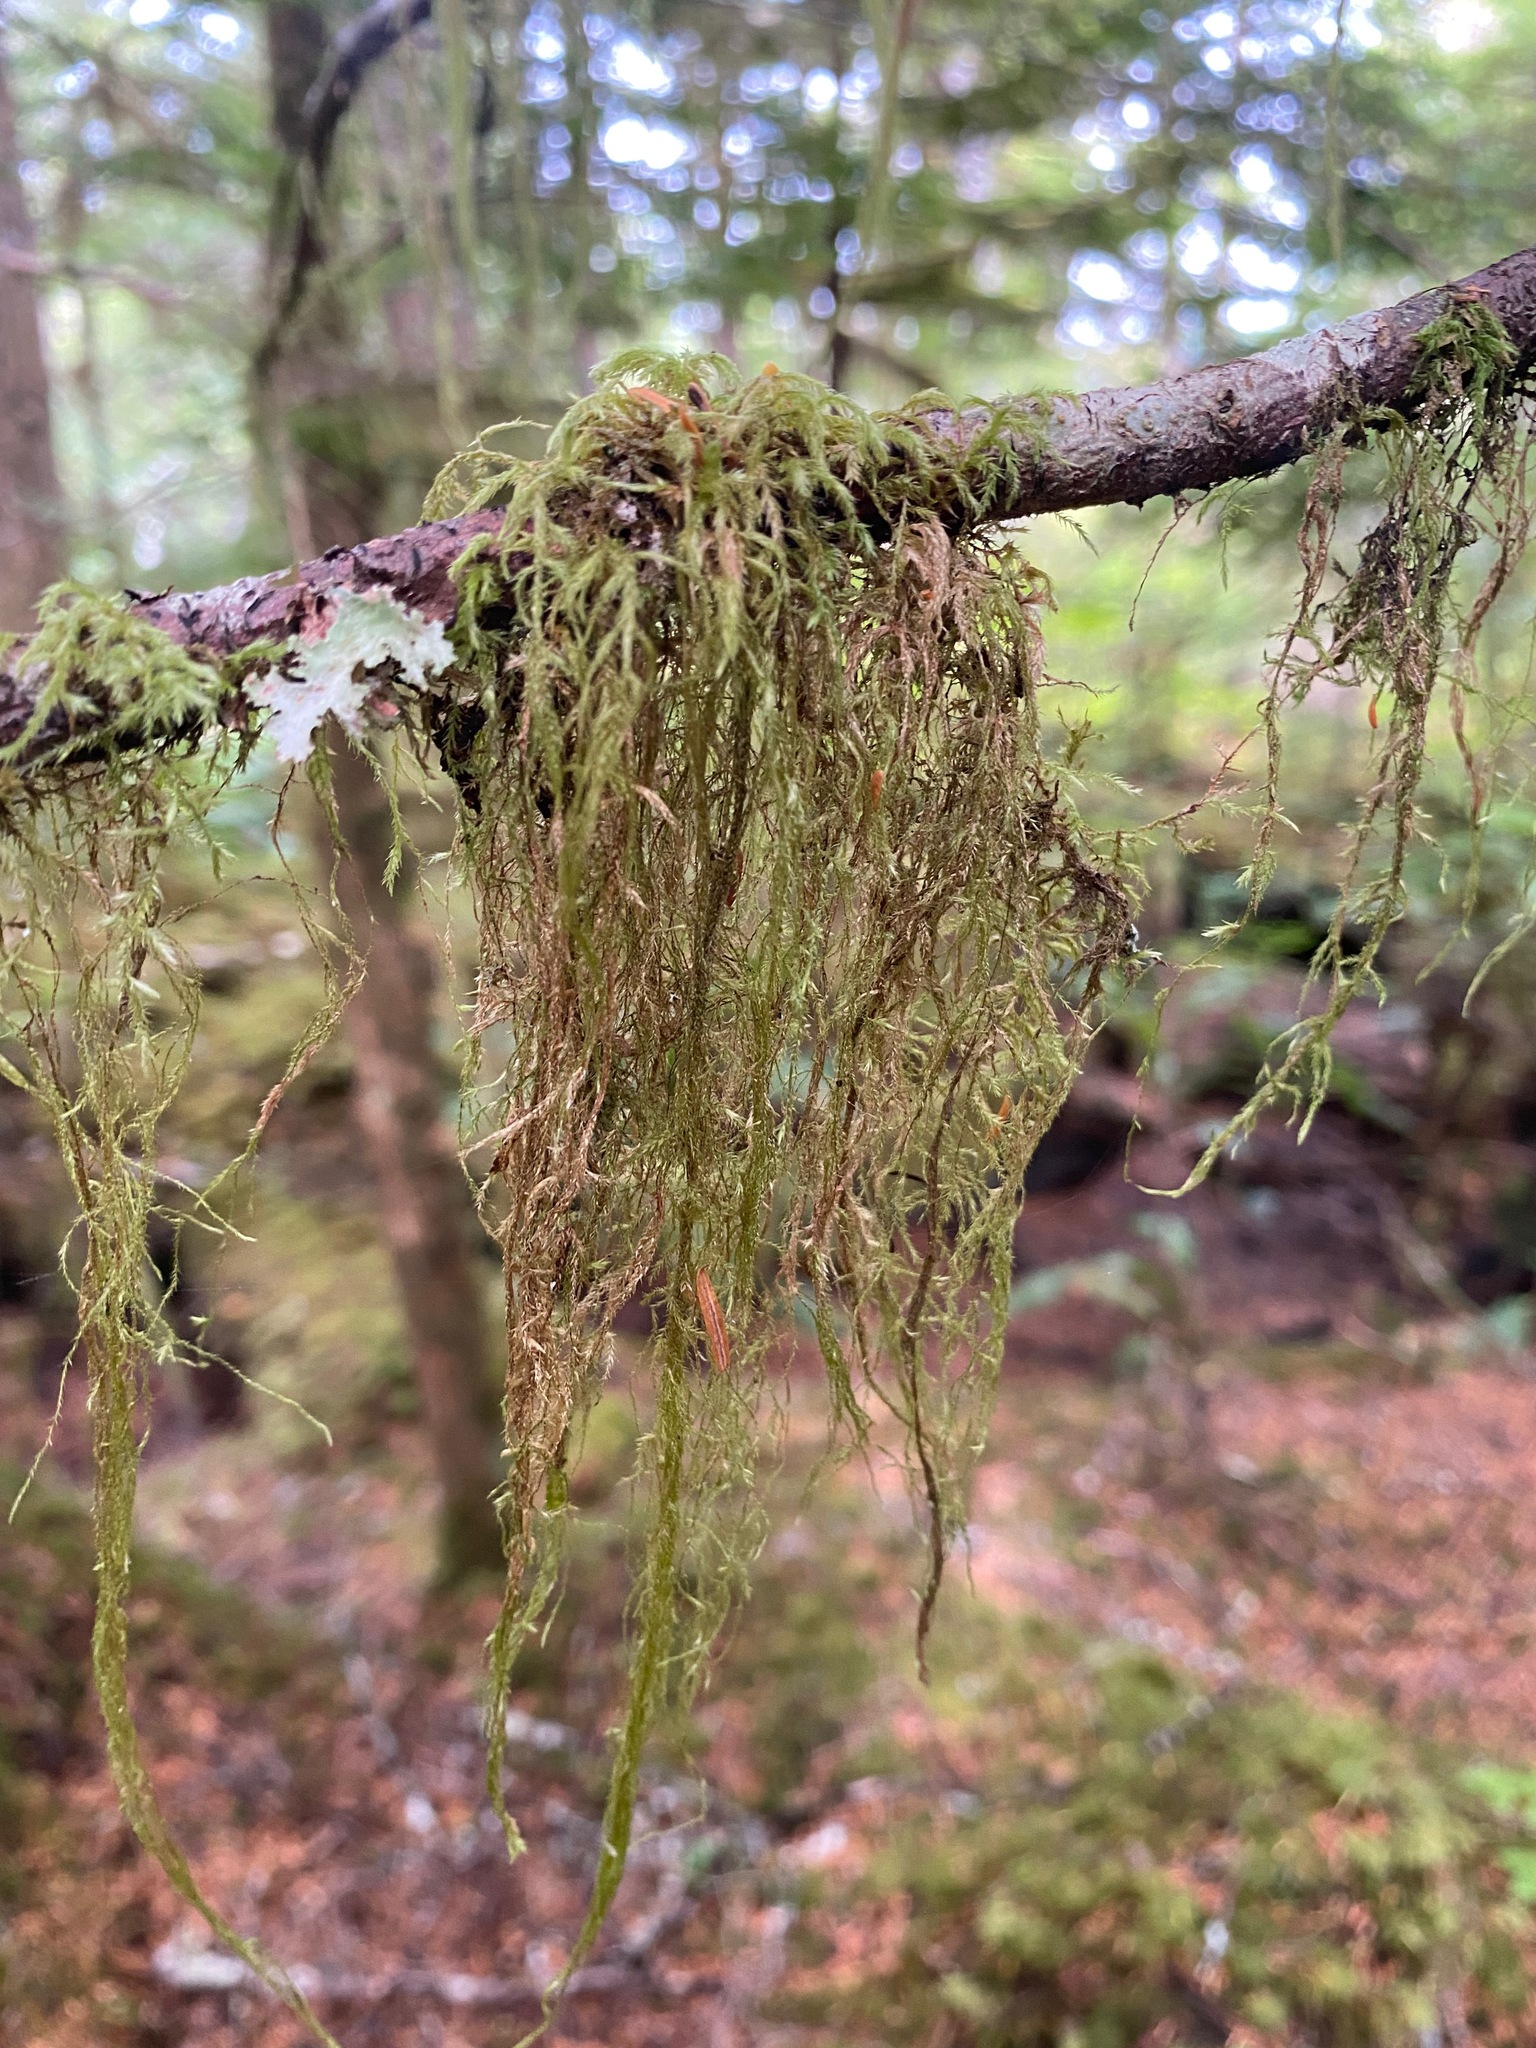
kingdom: Plantae
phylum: Bryophyta
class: Bryopsida
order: Hypnales
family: Lembophyllaceae
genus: Pseudisothecium
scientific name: Pseudisothecium stoloniferum
